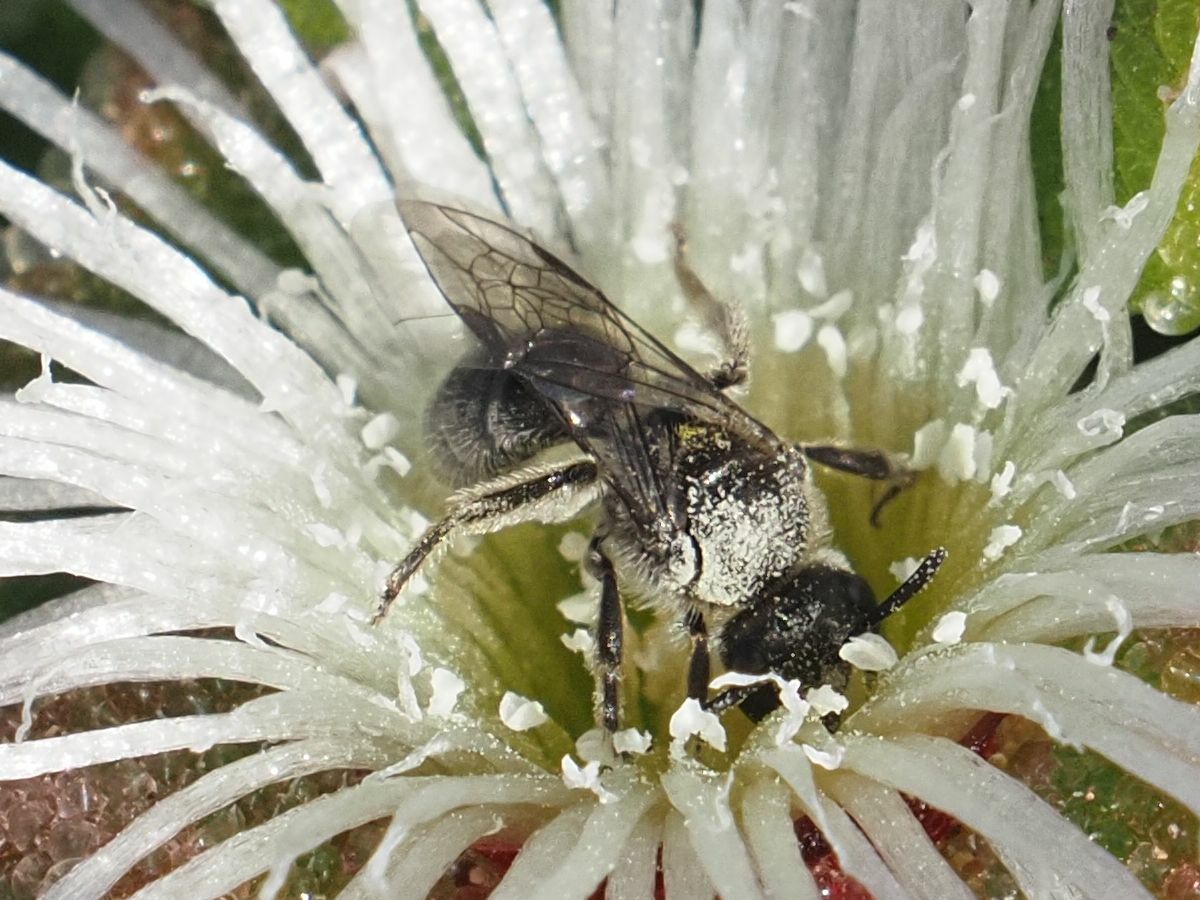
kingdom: Animalia
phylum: Arthropoda
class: Insecta
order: Hymenoptera
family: Halictidae
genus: Lasioglossum
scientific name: Lasioglossum viride
